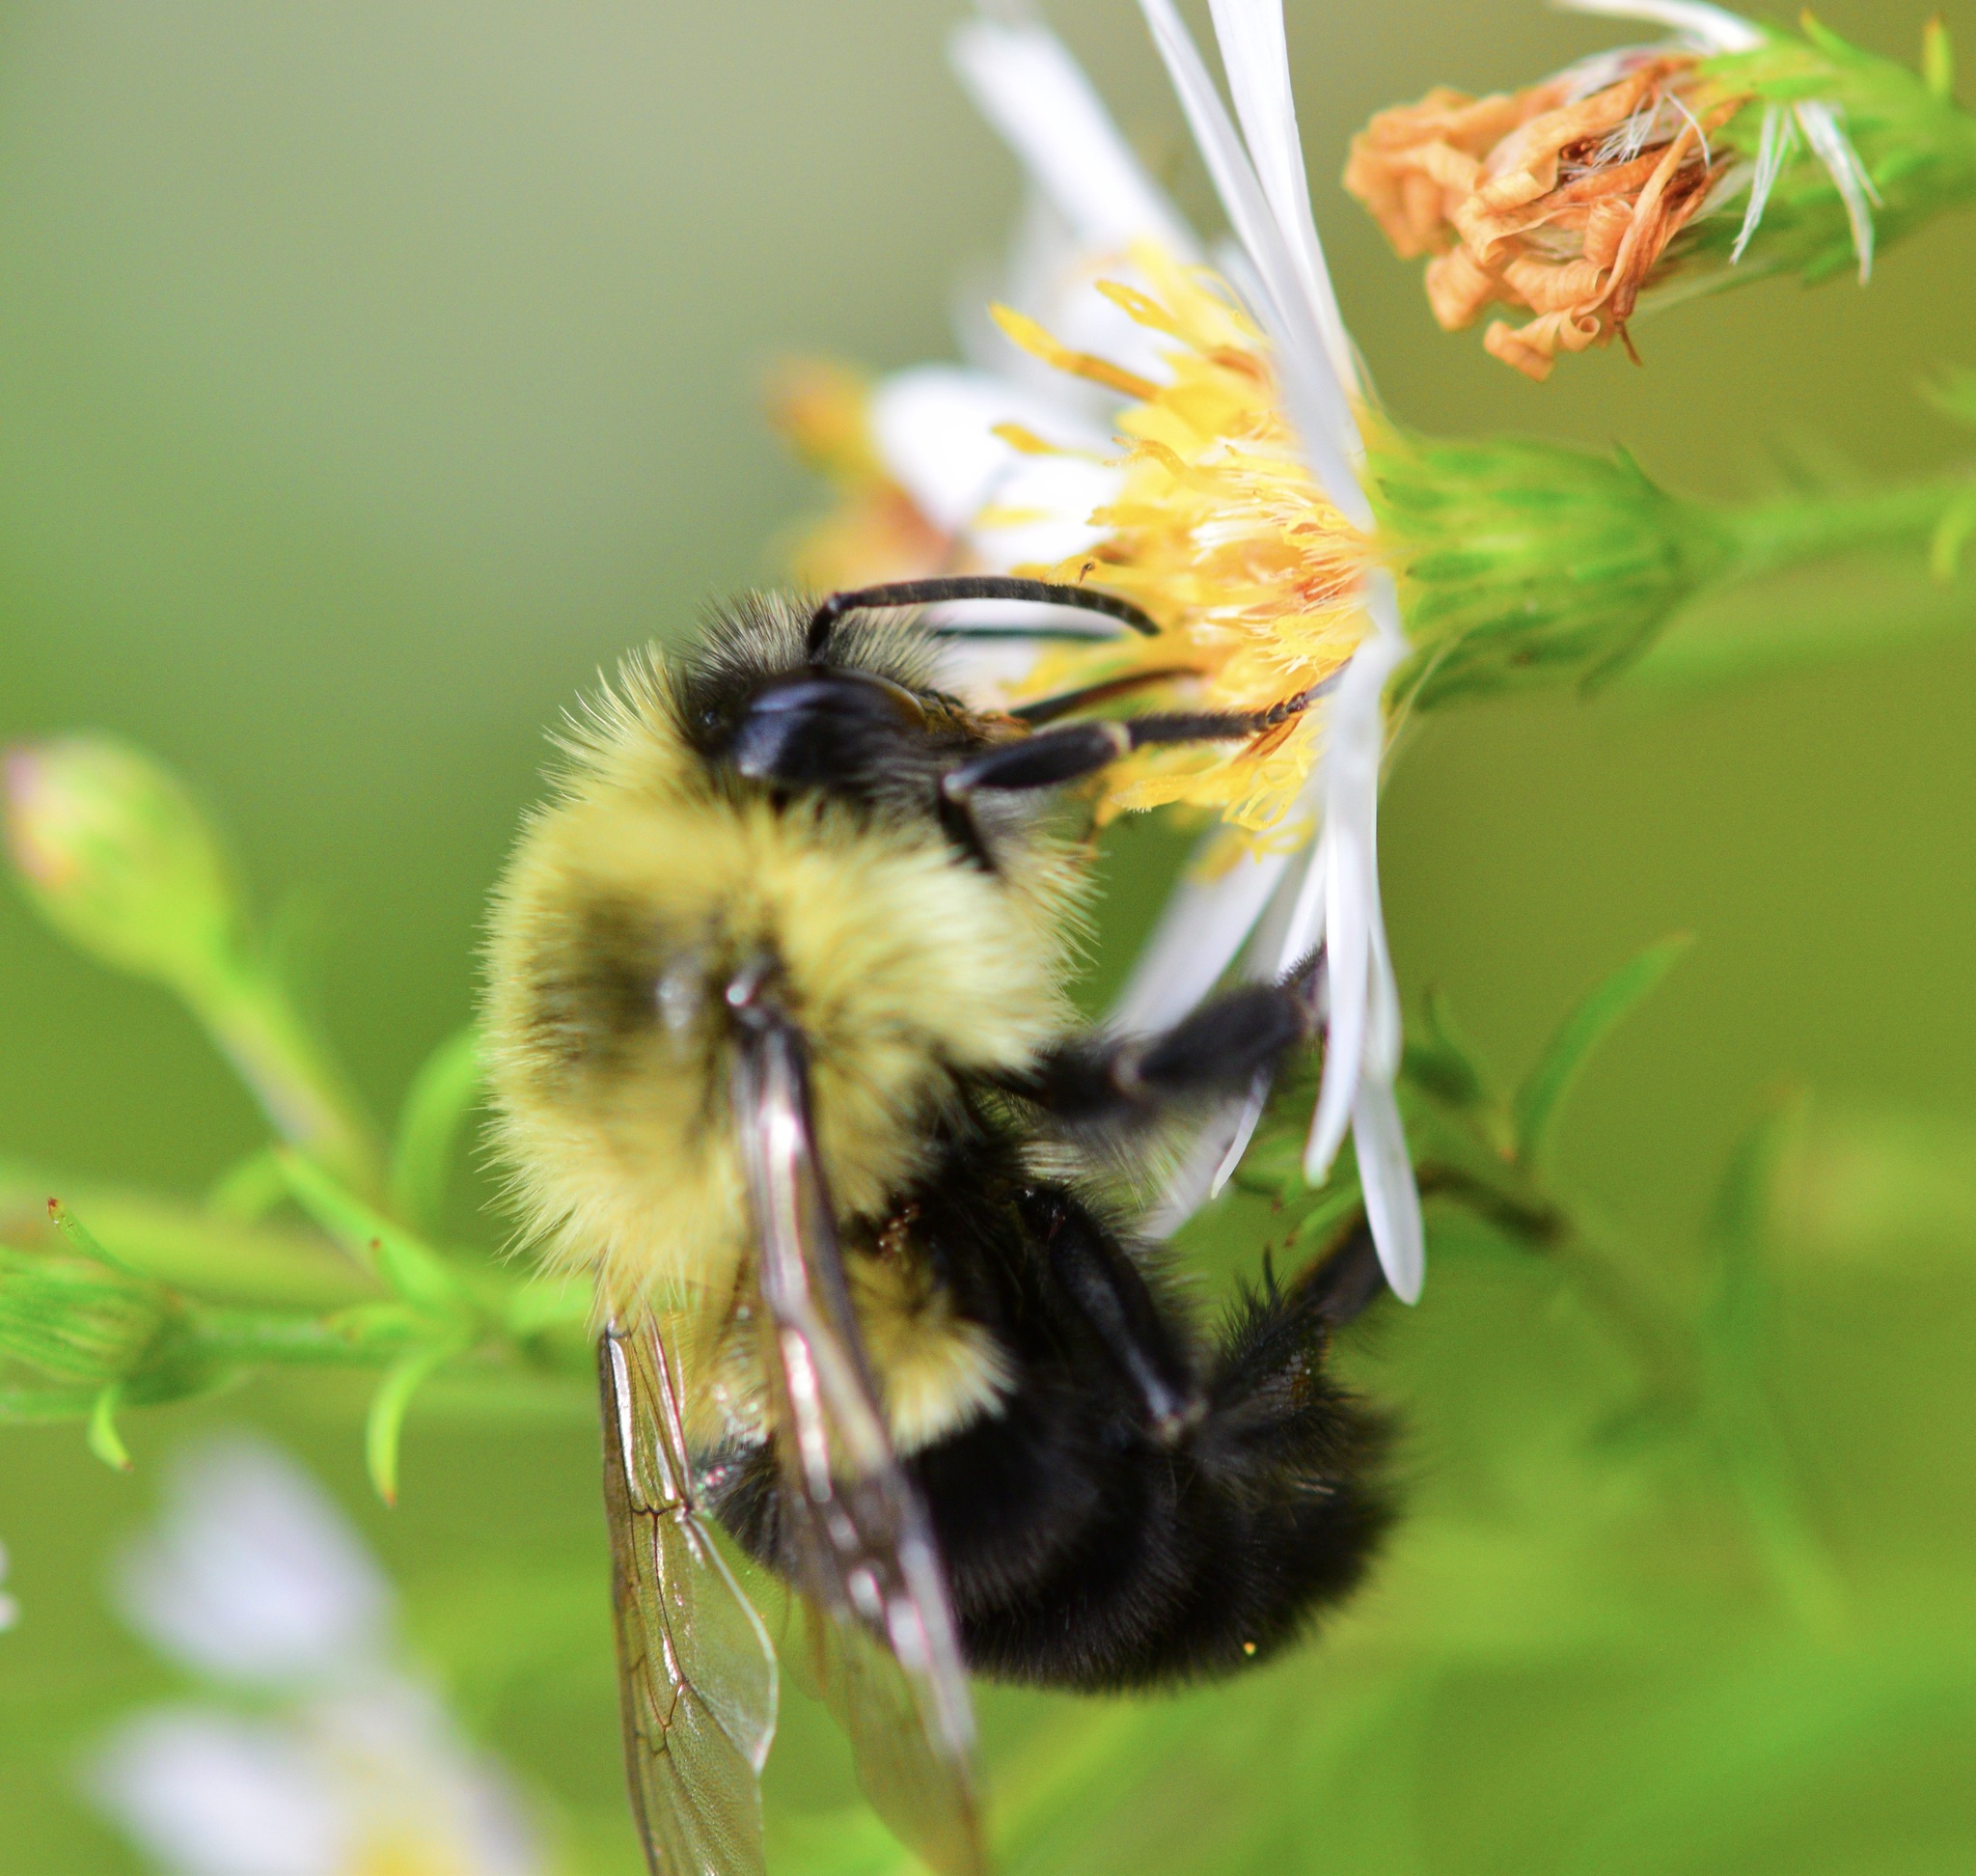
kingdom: Animalia
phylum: Arthropoda
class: Insecta
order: Hymenoptera
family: Apidae
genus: Bombus
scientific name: Bombus impatiens
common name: Common eastern bumble bee
